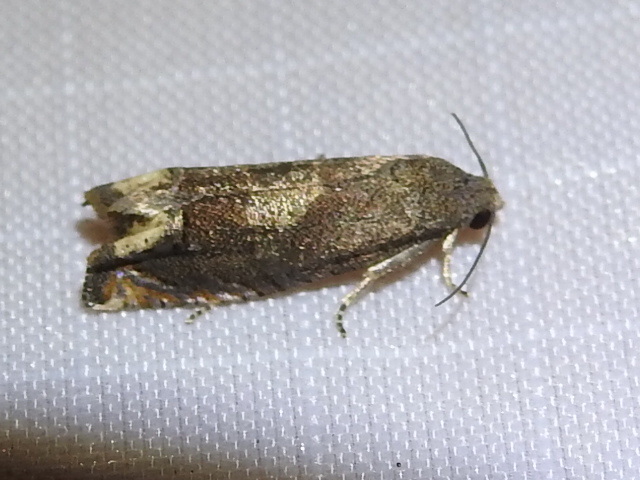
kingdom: Animalia
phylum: Arthropoda
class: Insecta
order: Lepidoptera
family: Tortricidae
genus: Epiblema
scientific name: Epiblema strenuana
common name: Ragweed borer moth
